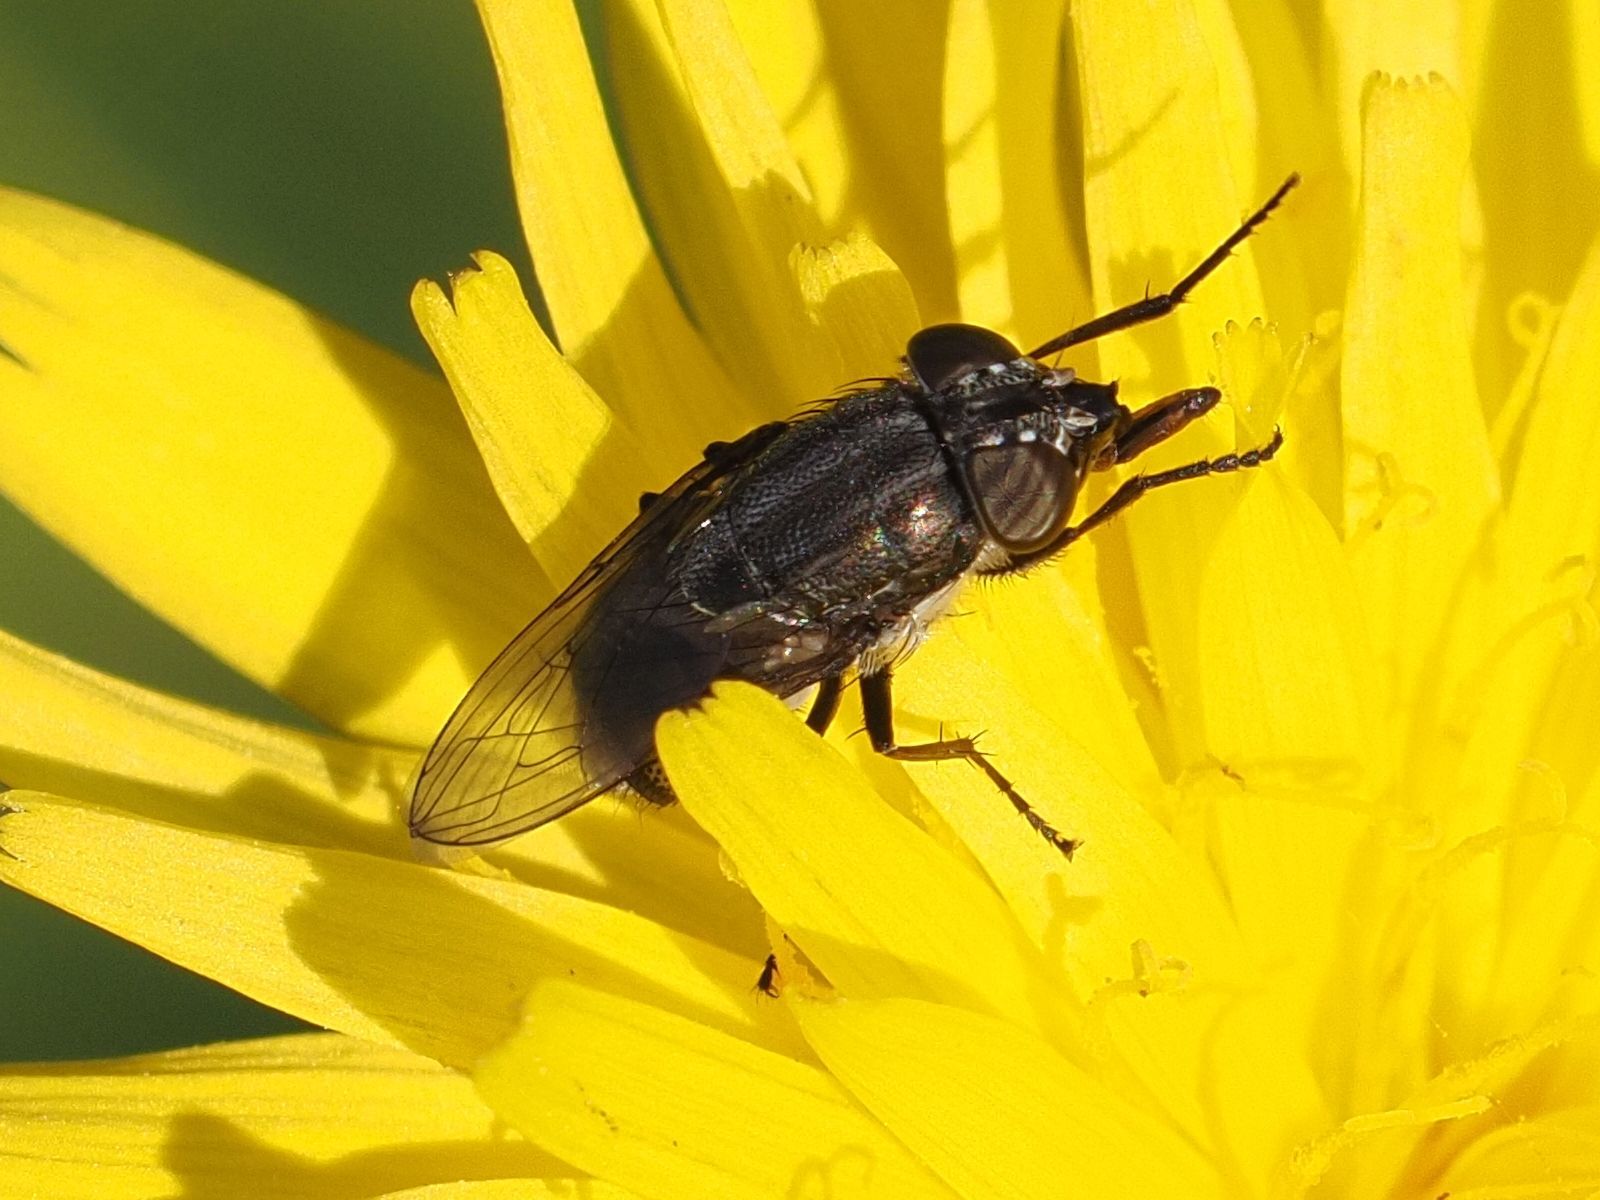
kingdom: Animalia
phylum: Arthropoda
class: Insecta
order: Diptera
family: Calliphoridae
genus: Stomorhina
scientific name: Stomorhina lunata
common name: Locust blowfly
